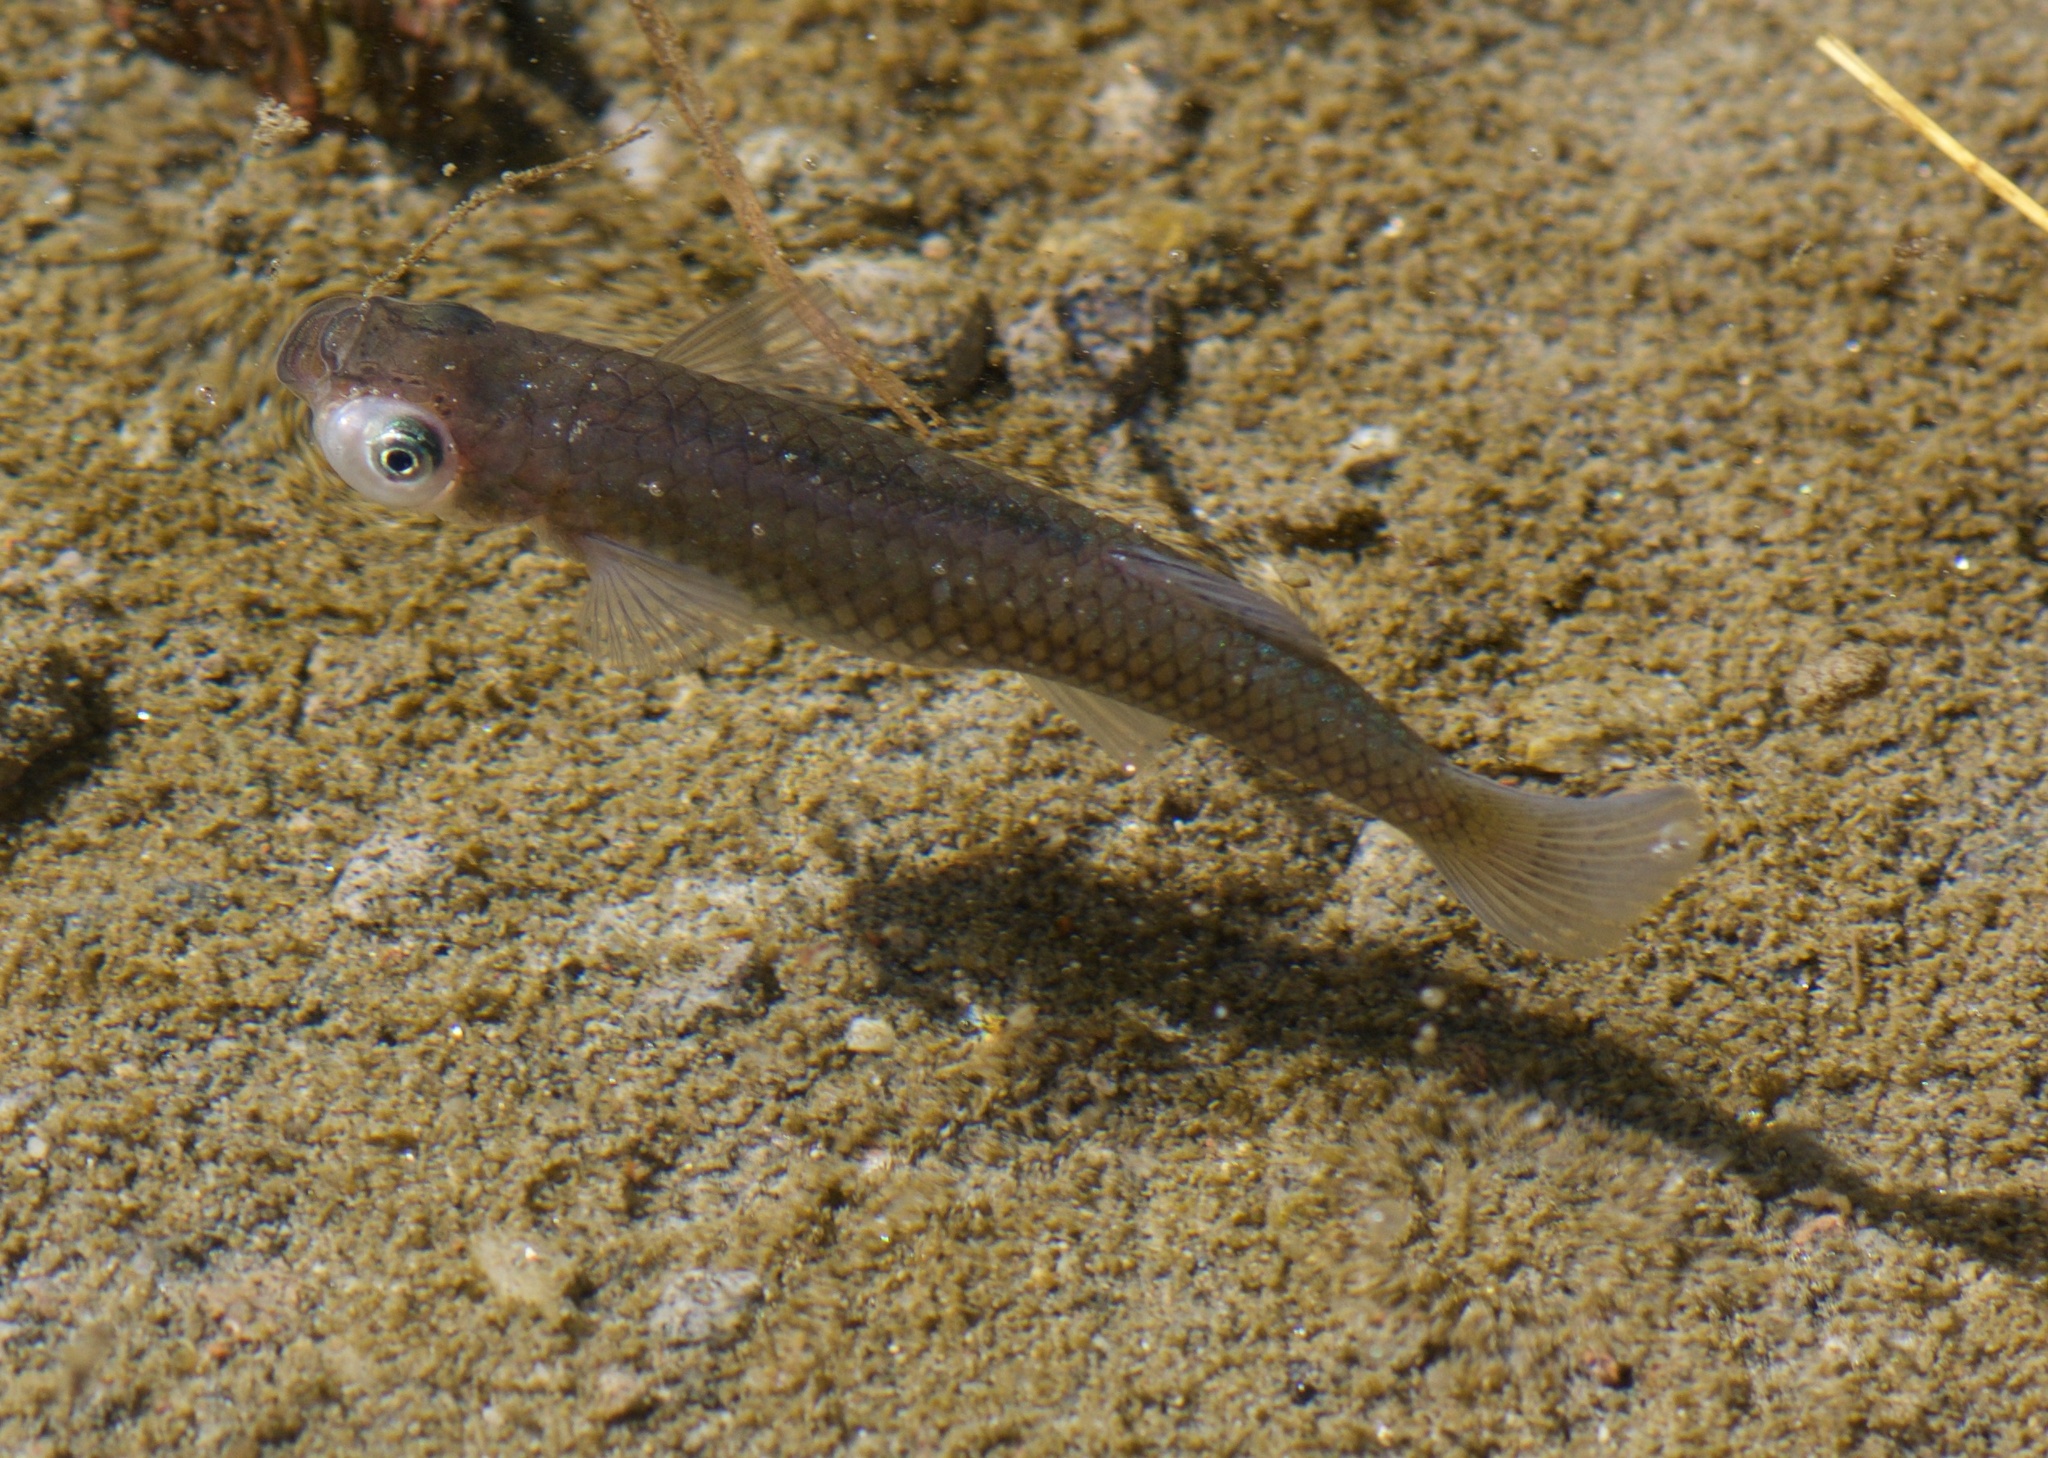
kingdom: Animalia
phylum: Chordata
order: Cyprinodontiformes
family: Poeciliidae
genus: Gambusia
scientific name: Gambusia affinis
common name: Mosquitofish
